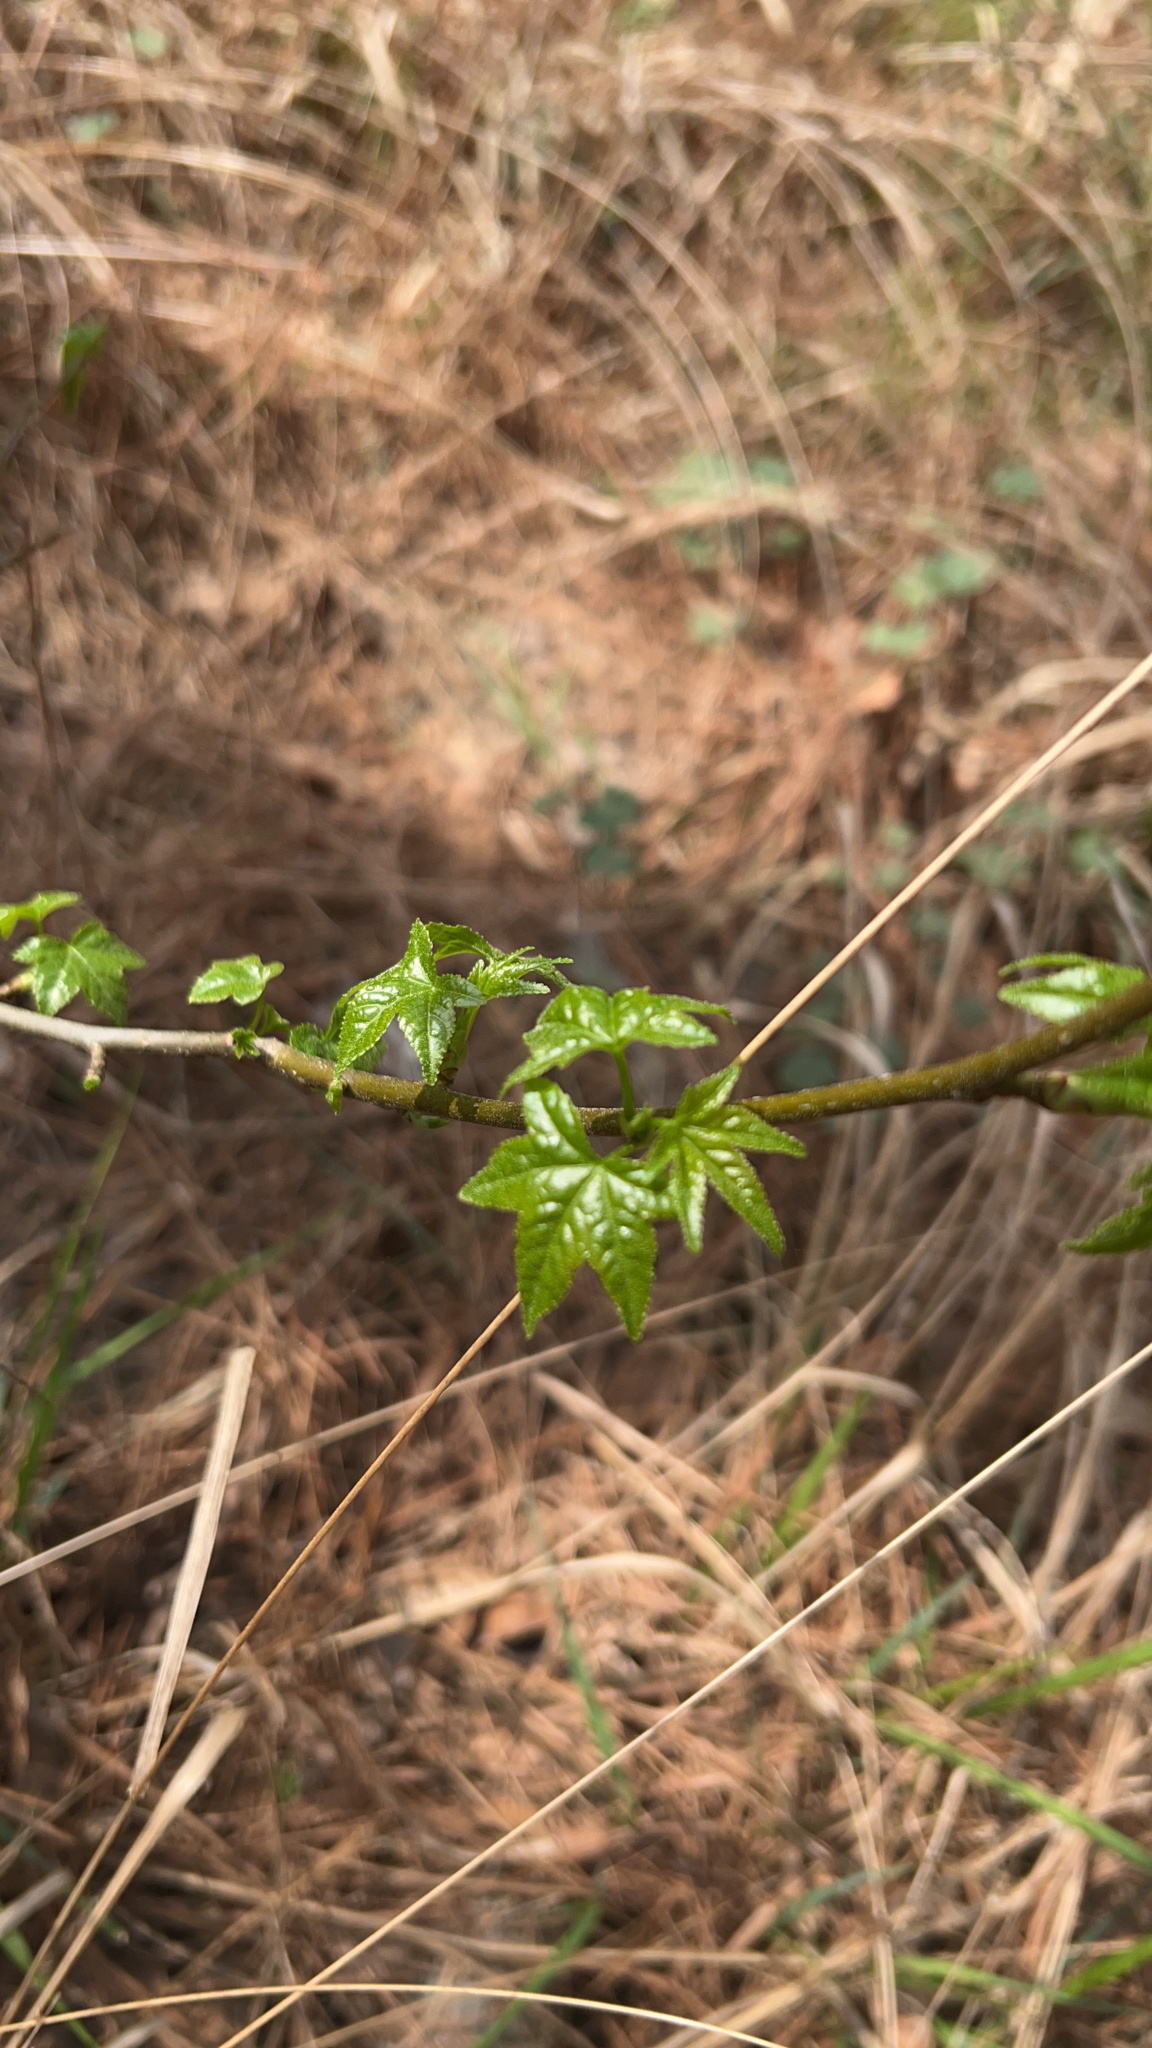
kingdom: Plantae
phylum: Tracheophyta
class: Magnoliopsida
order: Saxifragales
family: Altingiaceae
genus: Liquidambar
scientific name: Liquidambar styraciflua
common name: Sweet gum
